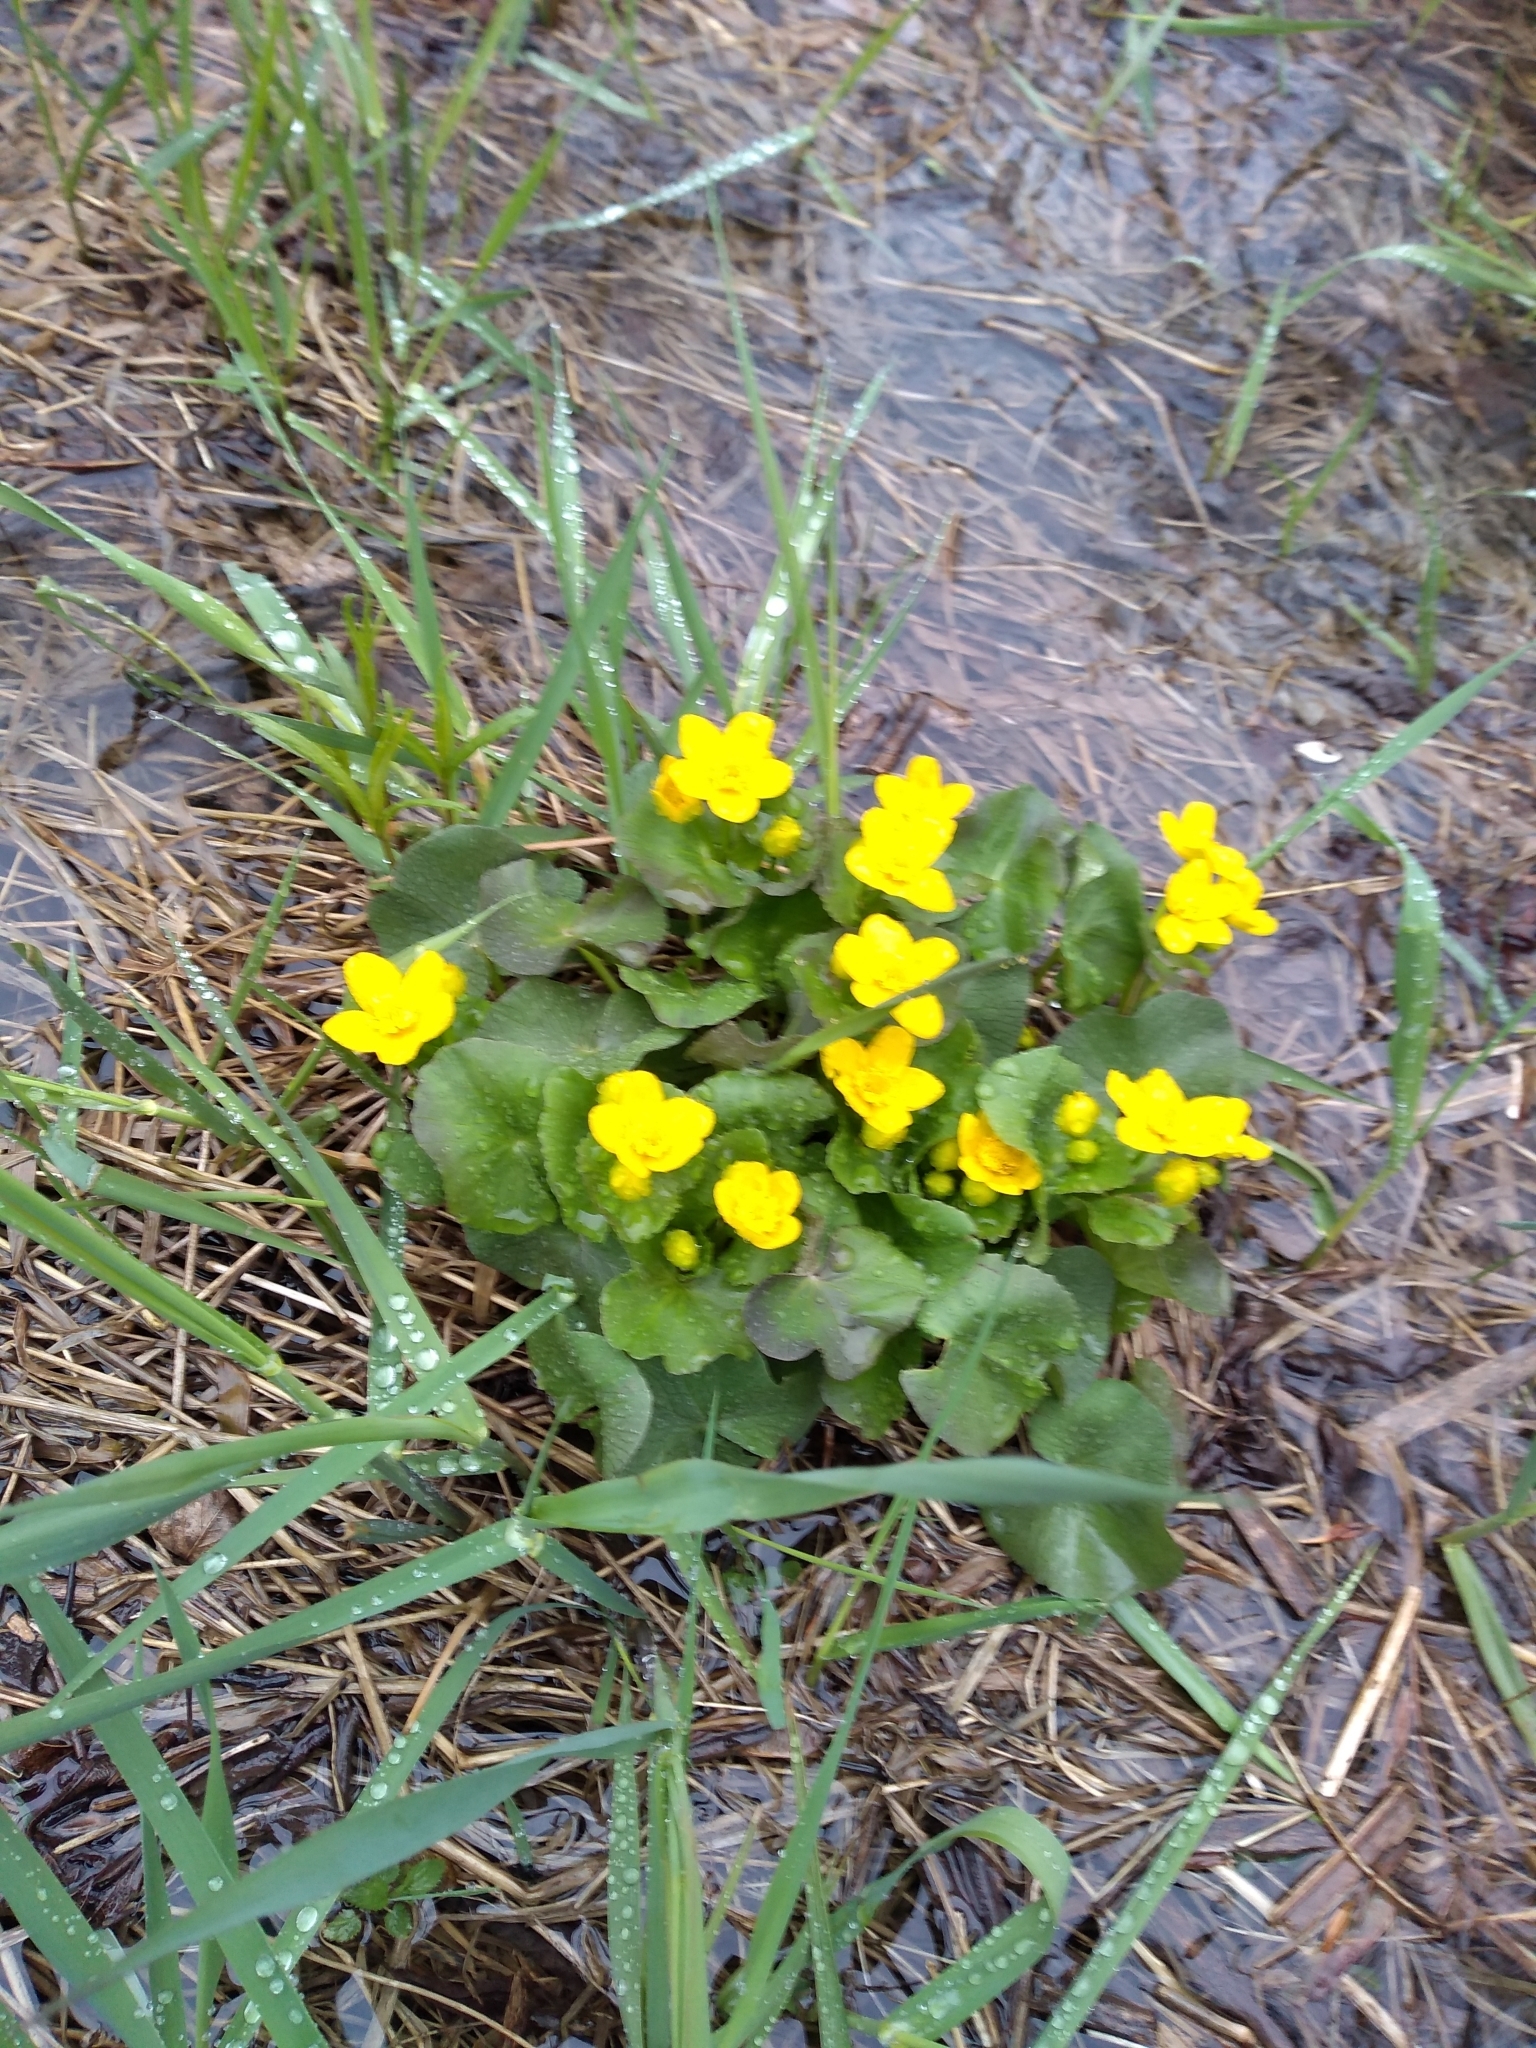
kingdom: Plantae
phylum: Tracheophyta
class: Magnoliopsida
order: Ranunculales
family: Ranunculaceae
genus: Caltha
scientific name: Caltha palustris
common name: Marsh marigold
